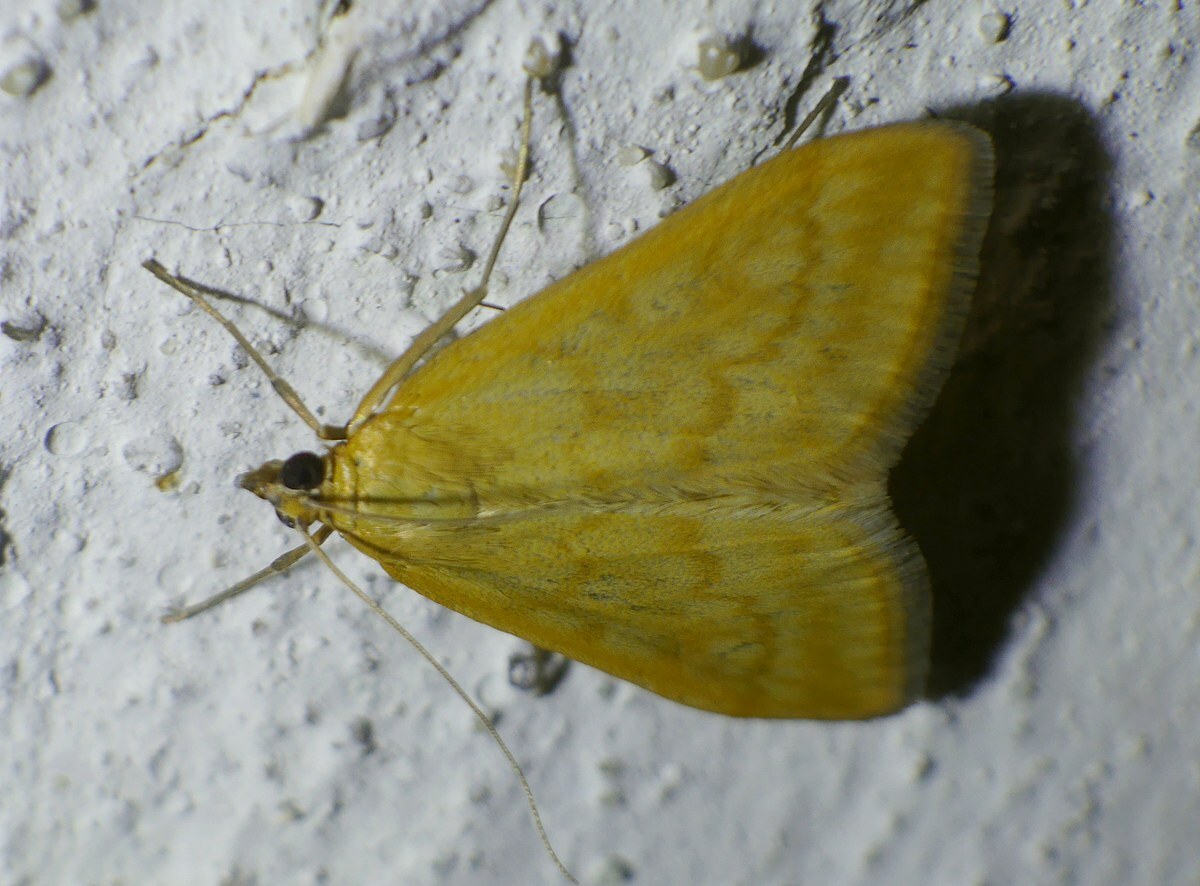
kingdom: Animalia
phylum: Arthropoda
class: Insecta
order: Lepidoptera
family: Crambidae
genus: Sitochroa
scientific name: Sitochroa verticalis
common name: Lesser pearl
